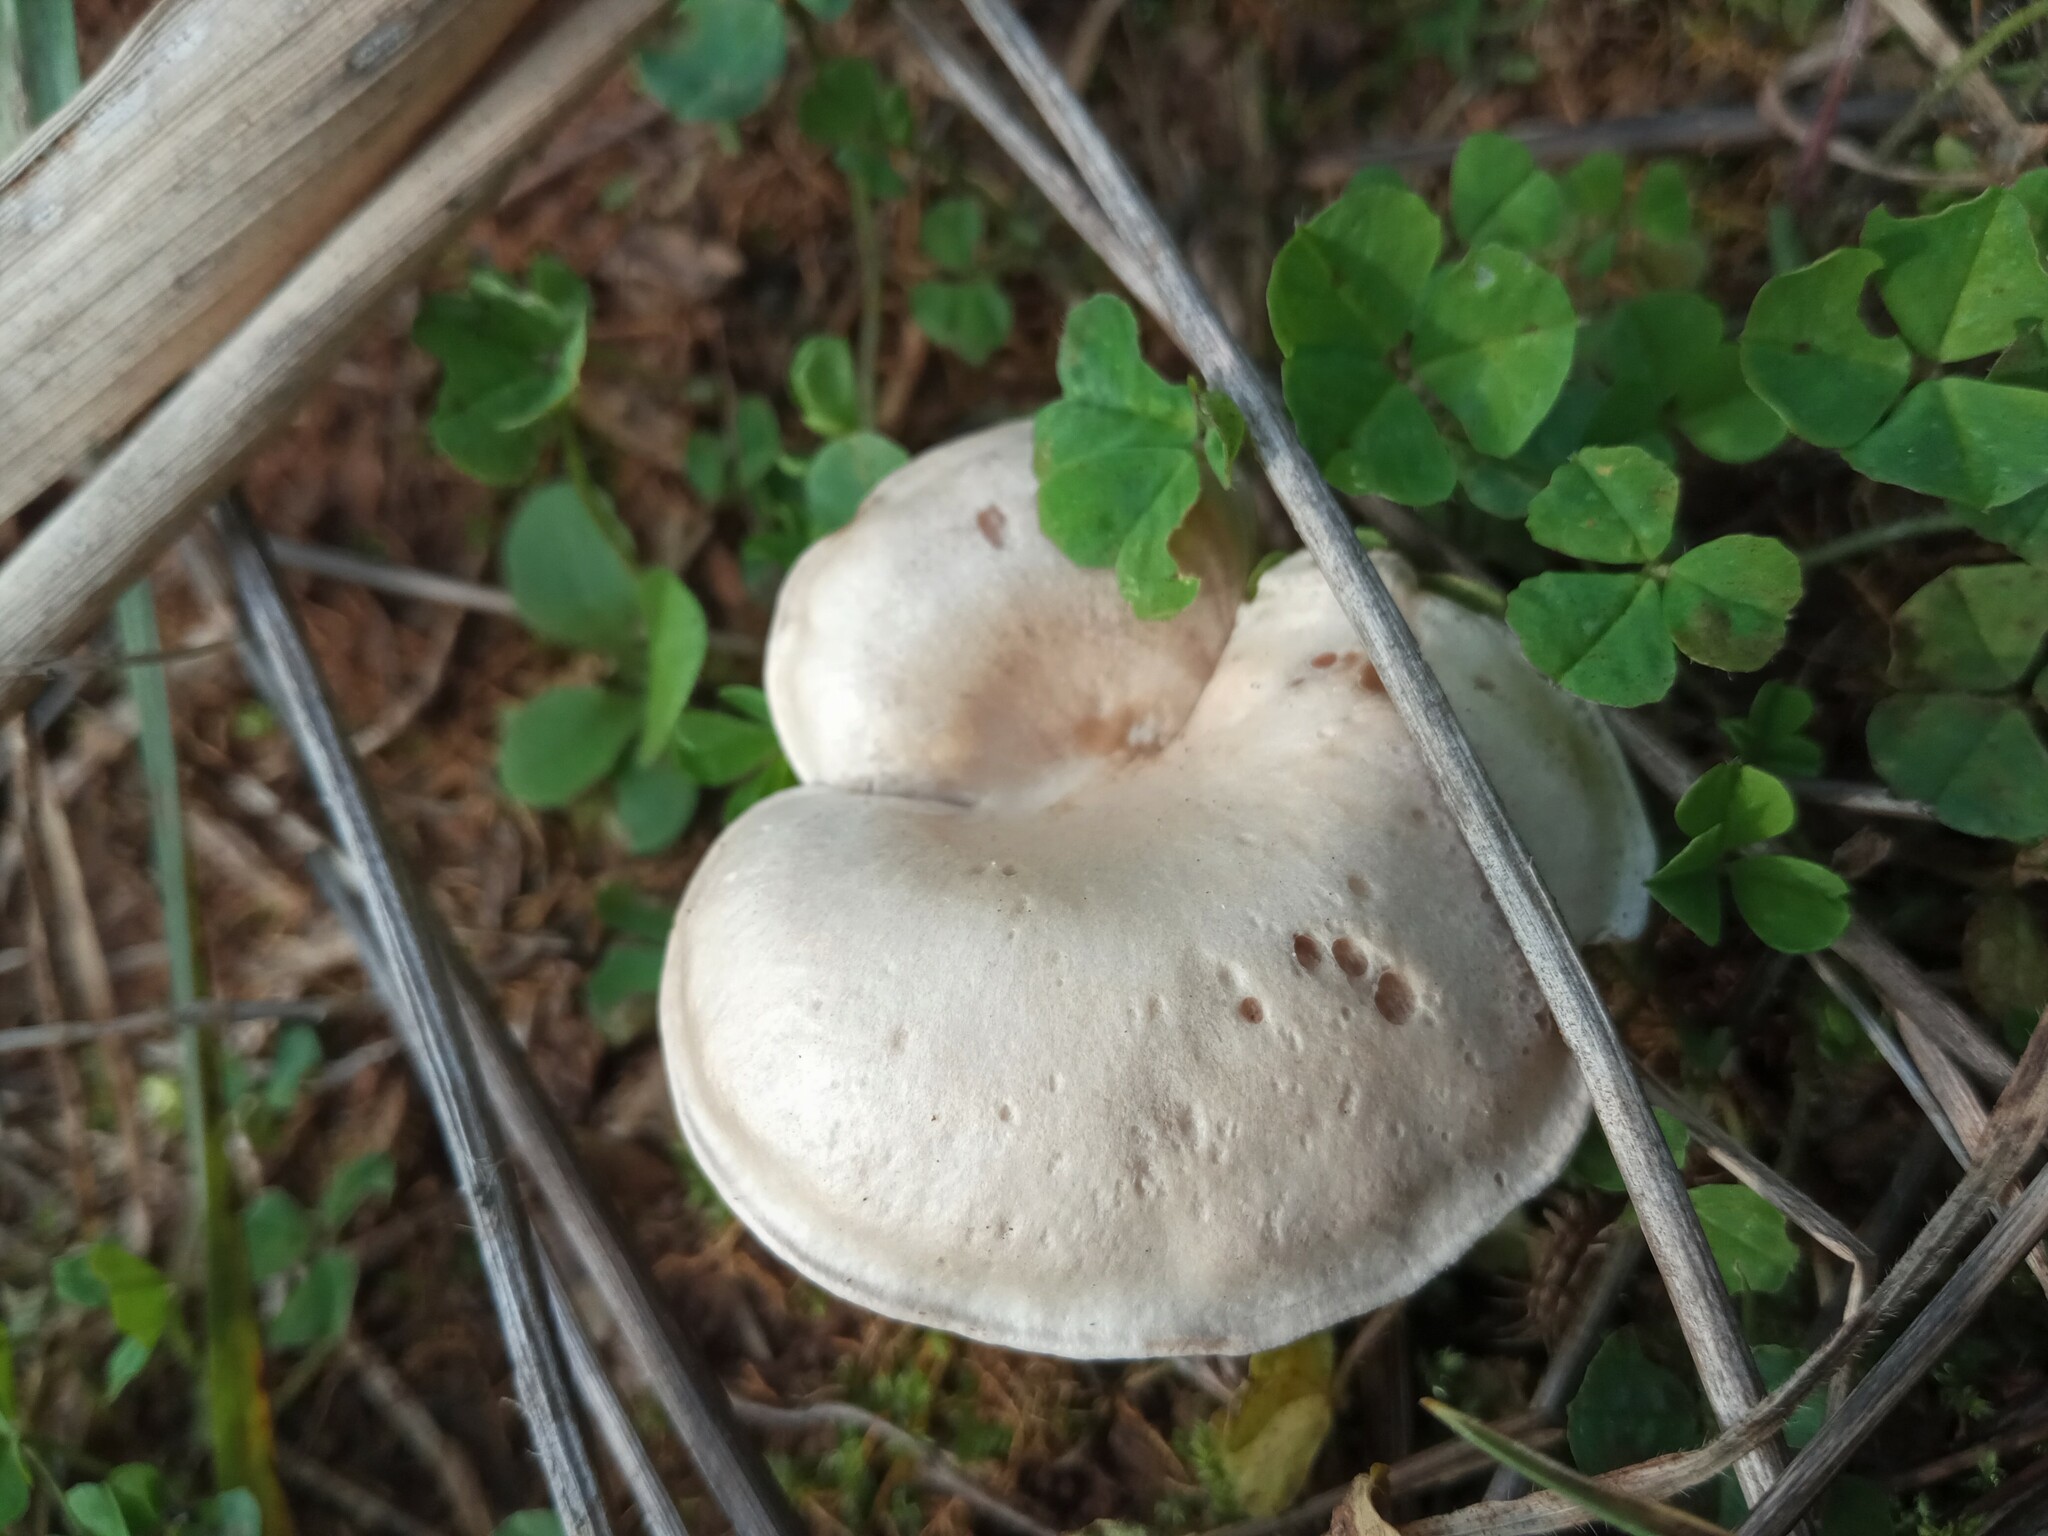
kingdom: Fungi
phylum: Basidiomycota
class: Agaricomycetes
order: Agaricales
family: Tricholomataceae
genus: Collybia
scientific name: Collybia
